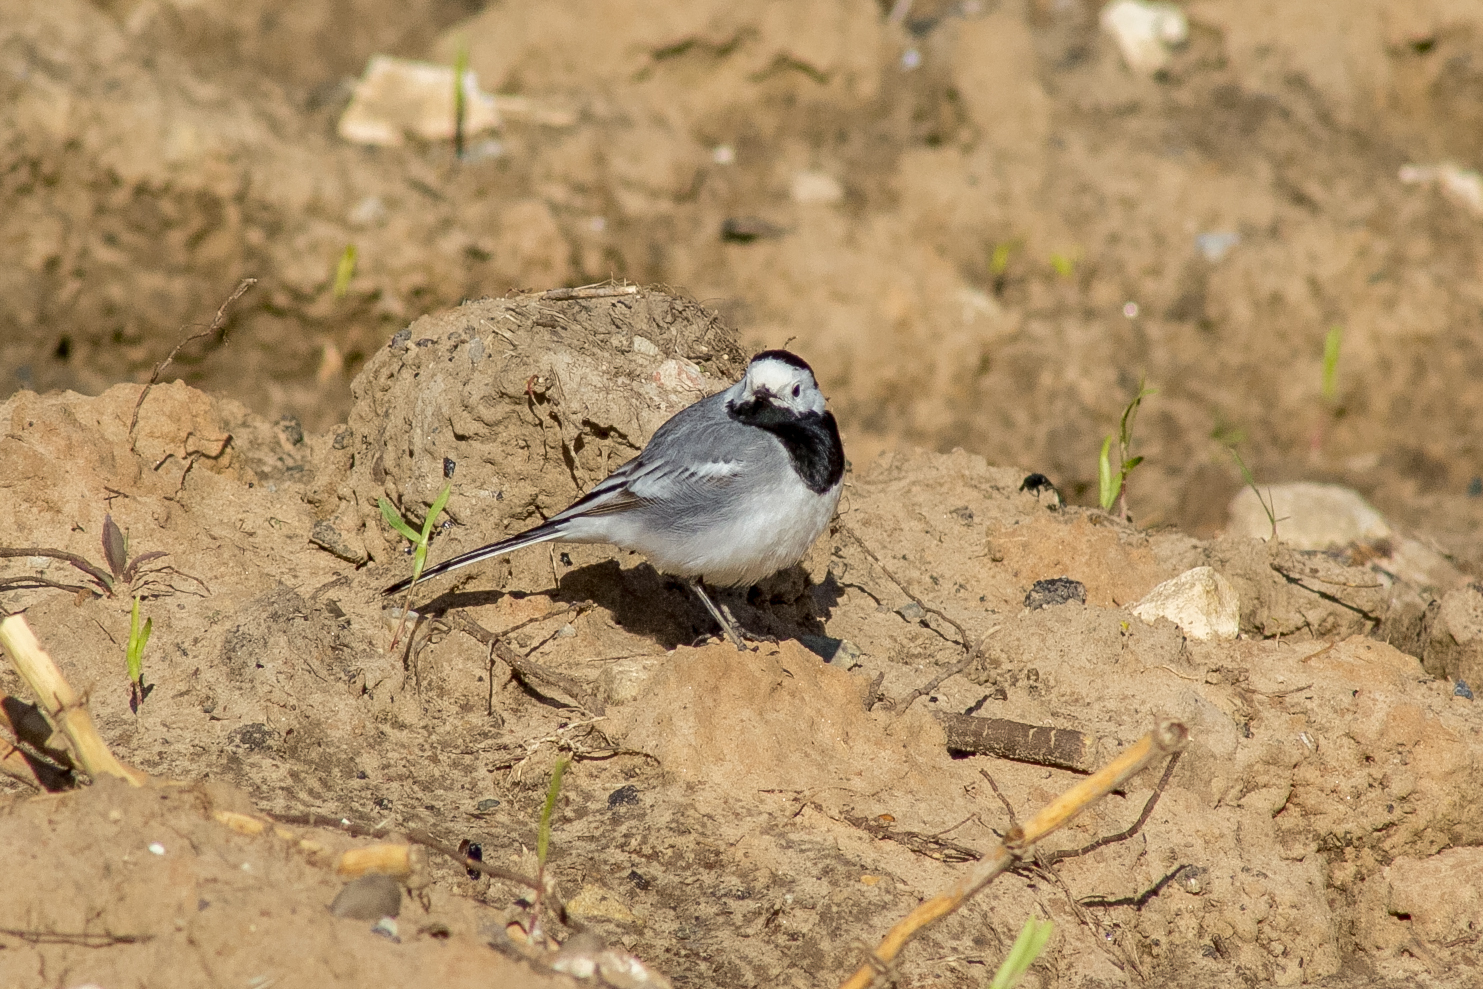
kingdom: Animalia
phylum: Chordata
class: Aves
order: Passeriformes
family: Motacillidae
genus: Motacilla
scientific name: Motacilla alba
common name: White wagtail
